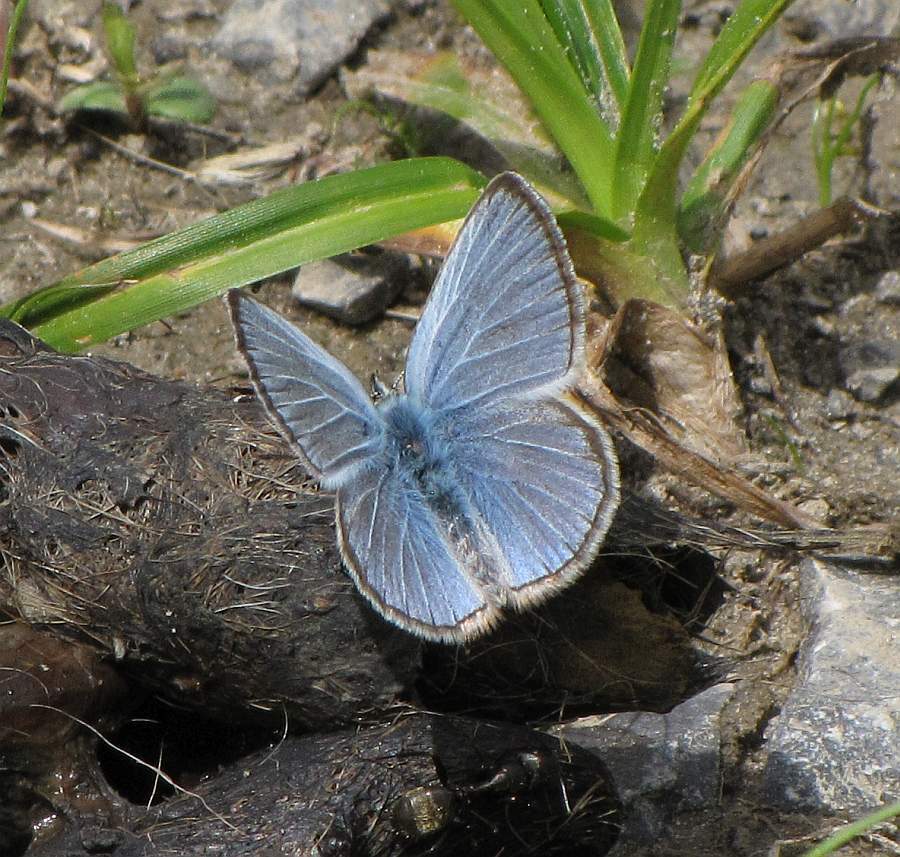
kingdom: Animalia
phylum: Arthropoda
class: Insecta
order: Lepidoptera
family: Lycaenidae
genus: Glaucopsyche
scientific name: Glaucopsyche lygdamus
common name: Silvery blue
